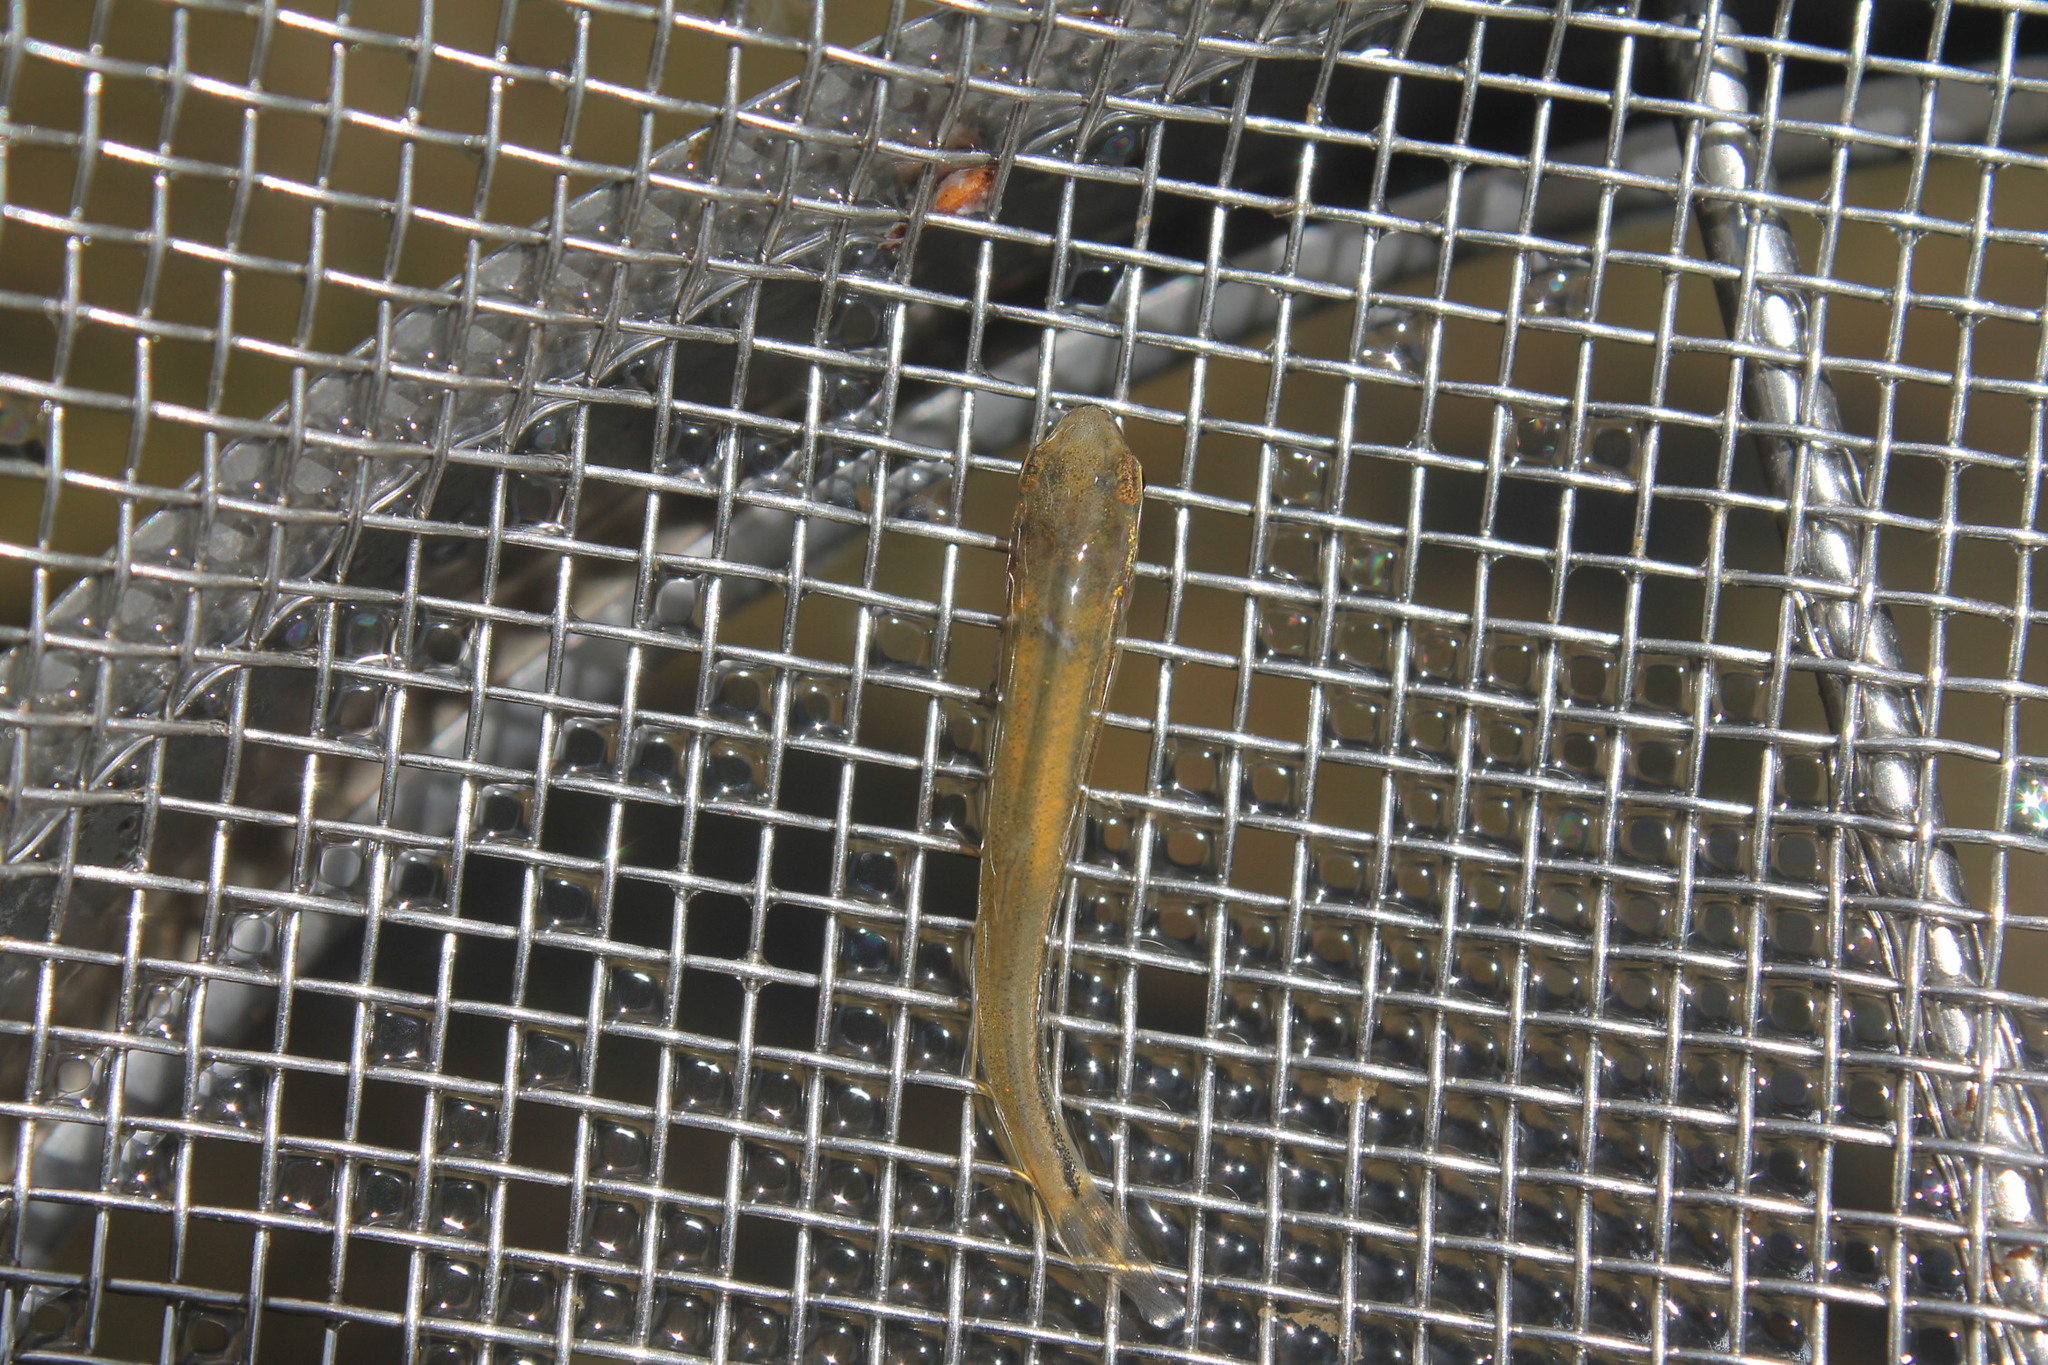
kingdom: Animalia
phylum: Chordata
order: Cypriniformes
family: Cyprinidae
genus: Pimephales
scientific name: Pimephales promelas
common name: Fathead minnow
